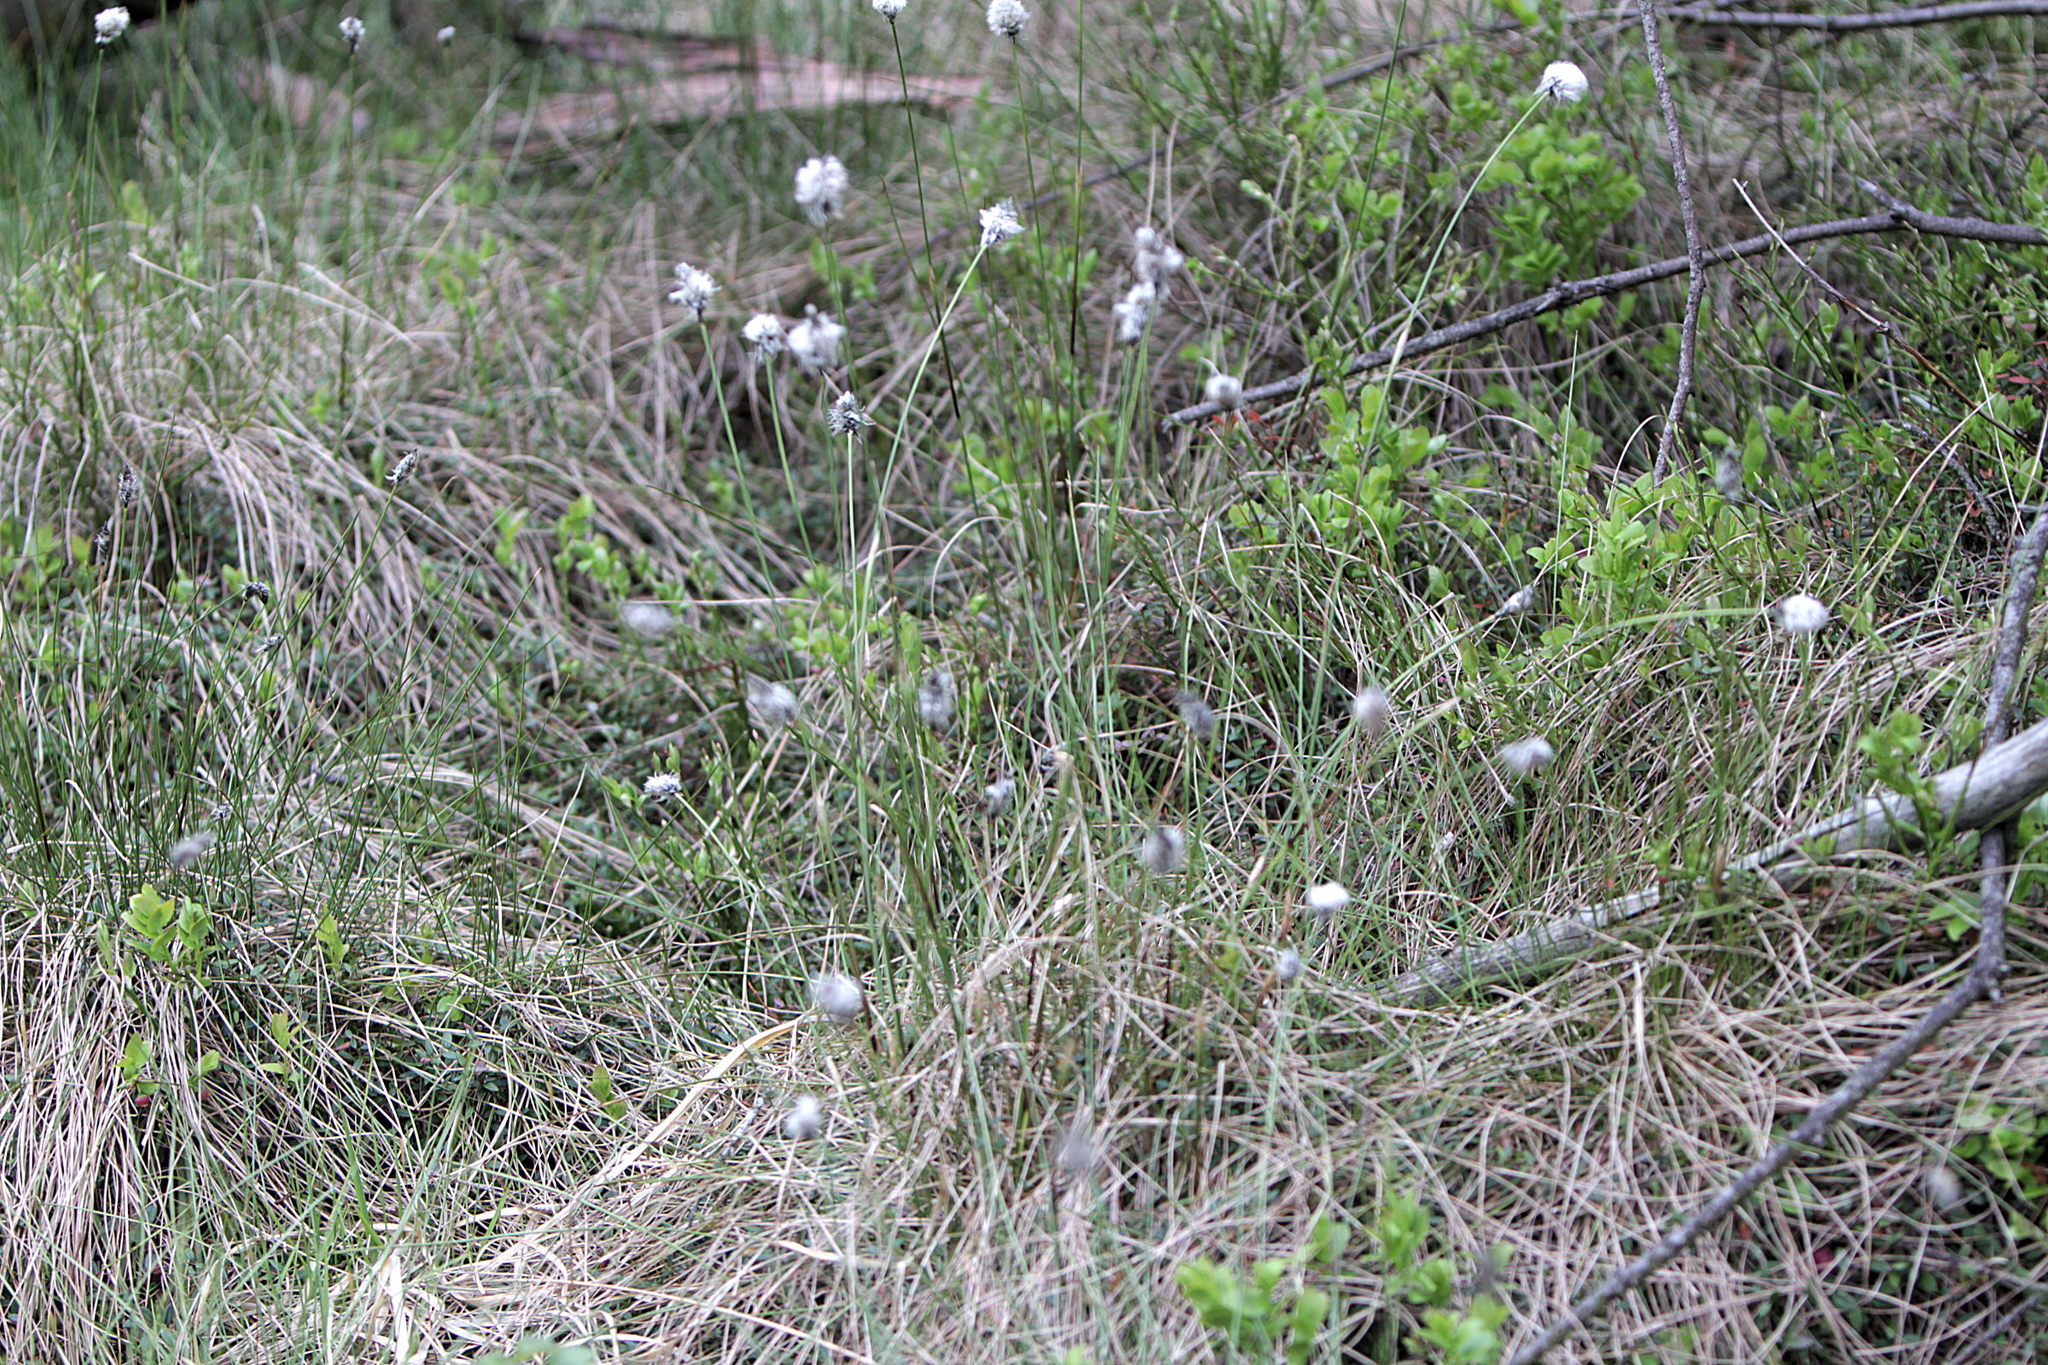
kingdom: Plantae
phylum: Tracheophyta
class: Liliopsida
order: Poales
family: Cyperaceae
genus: Eriophorum
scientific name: Eriophorum vaginatum
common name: Hare's-tail cottongrass
